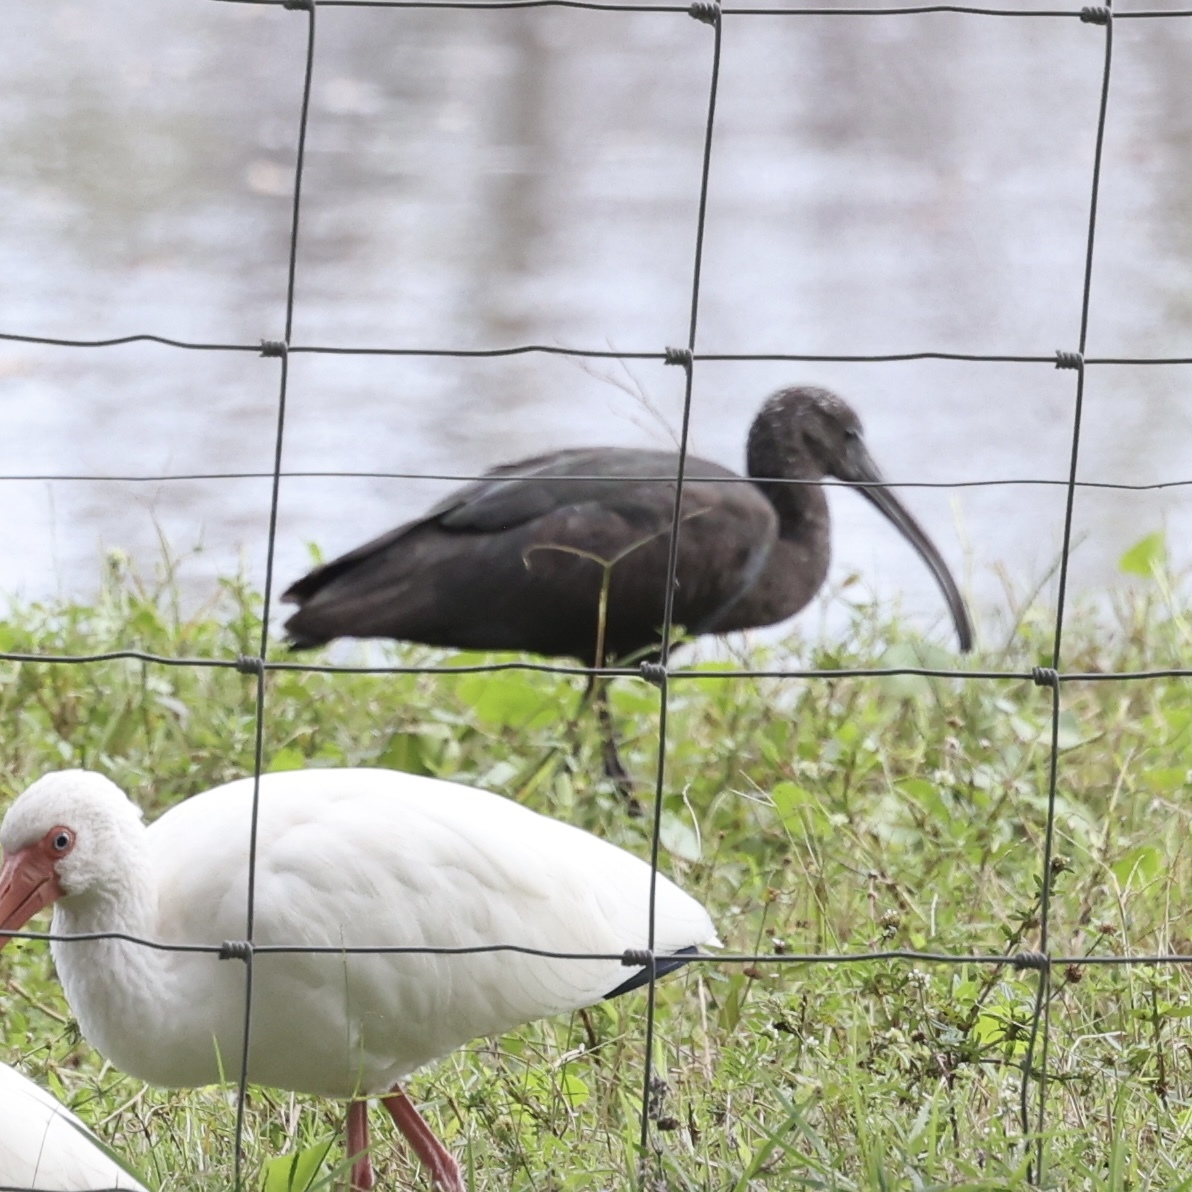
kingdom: Animalia
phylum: Chordata
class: Aves
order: Pelecaniformes
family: Threskiornithidae
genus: Plegadis
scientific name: Plegadis falcinellus
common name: Glossy ibis
